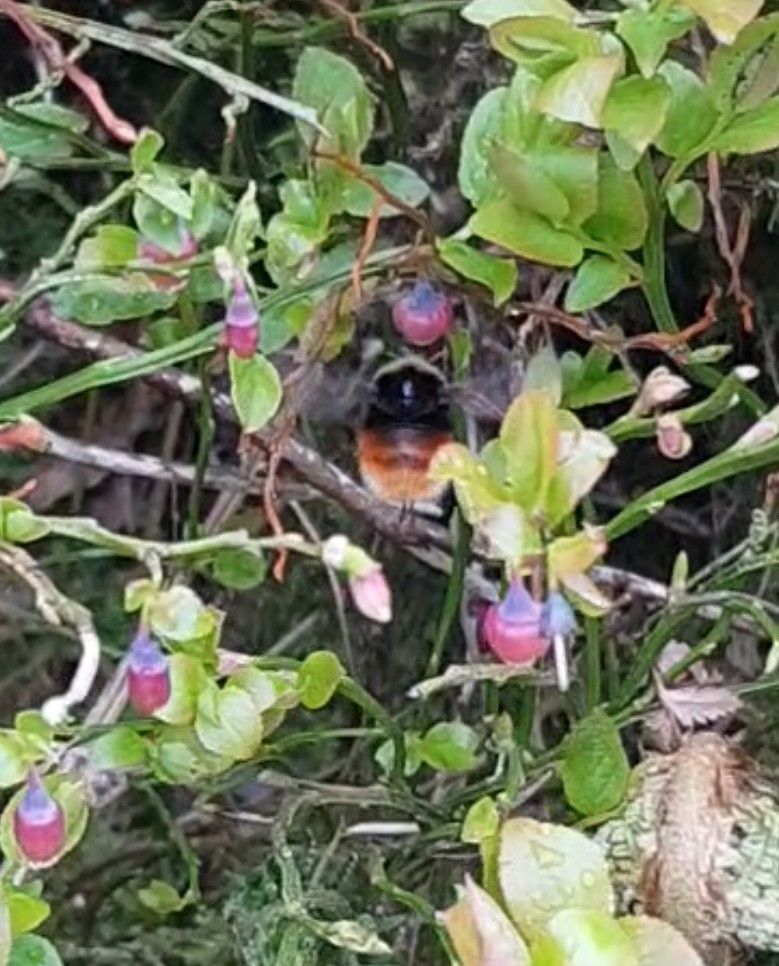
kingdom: Animalia
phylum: Arthropoda
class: Insecta
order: Hymenoptera
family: Apidae
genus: Bombus
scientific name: Bombus monticola
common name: Bilberry humble-bee
